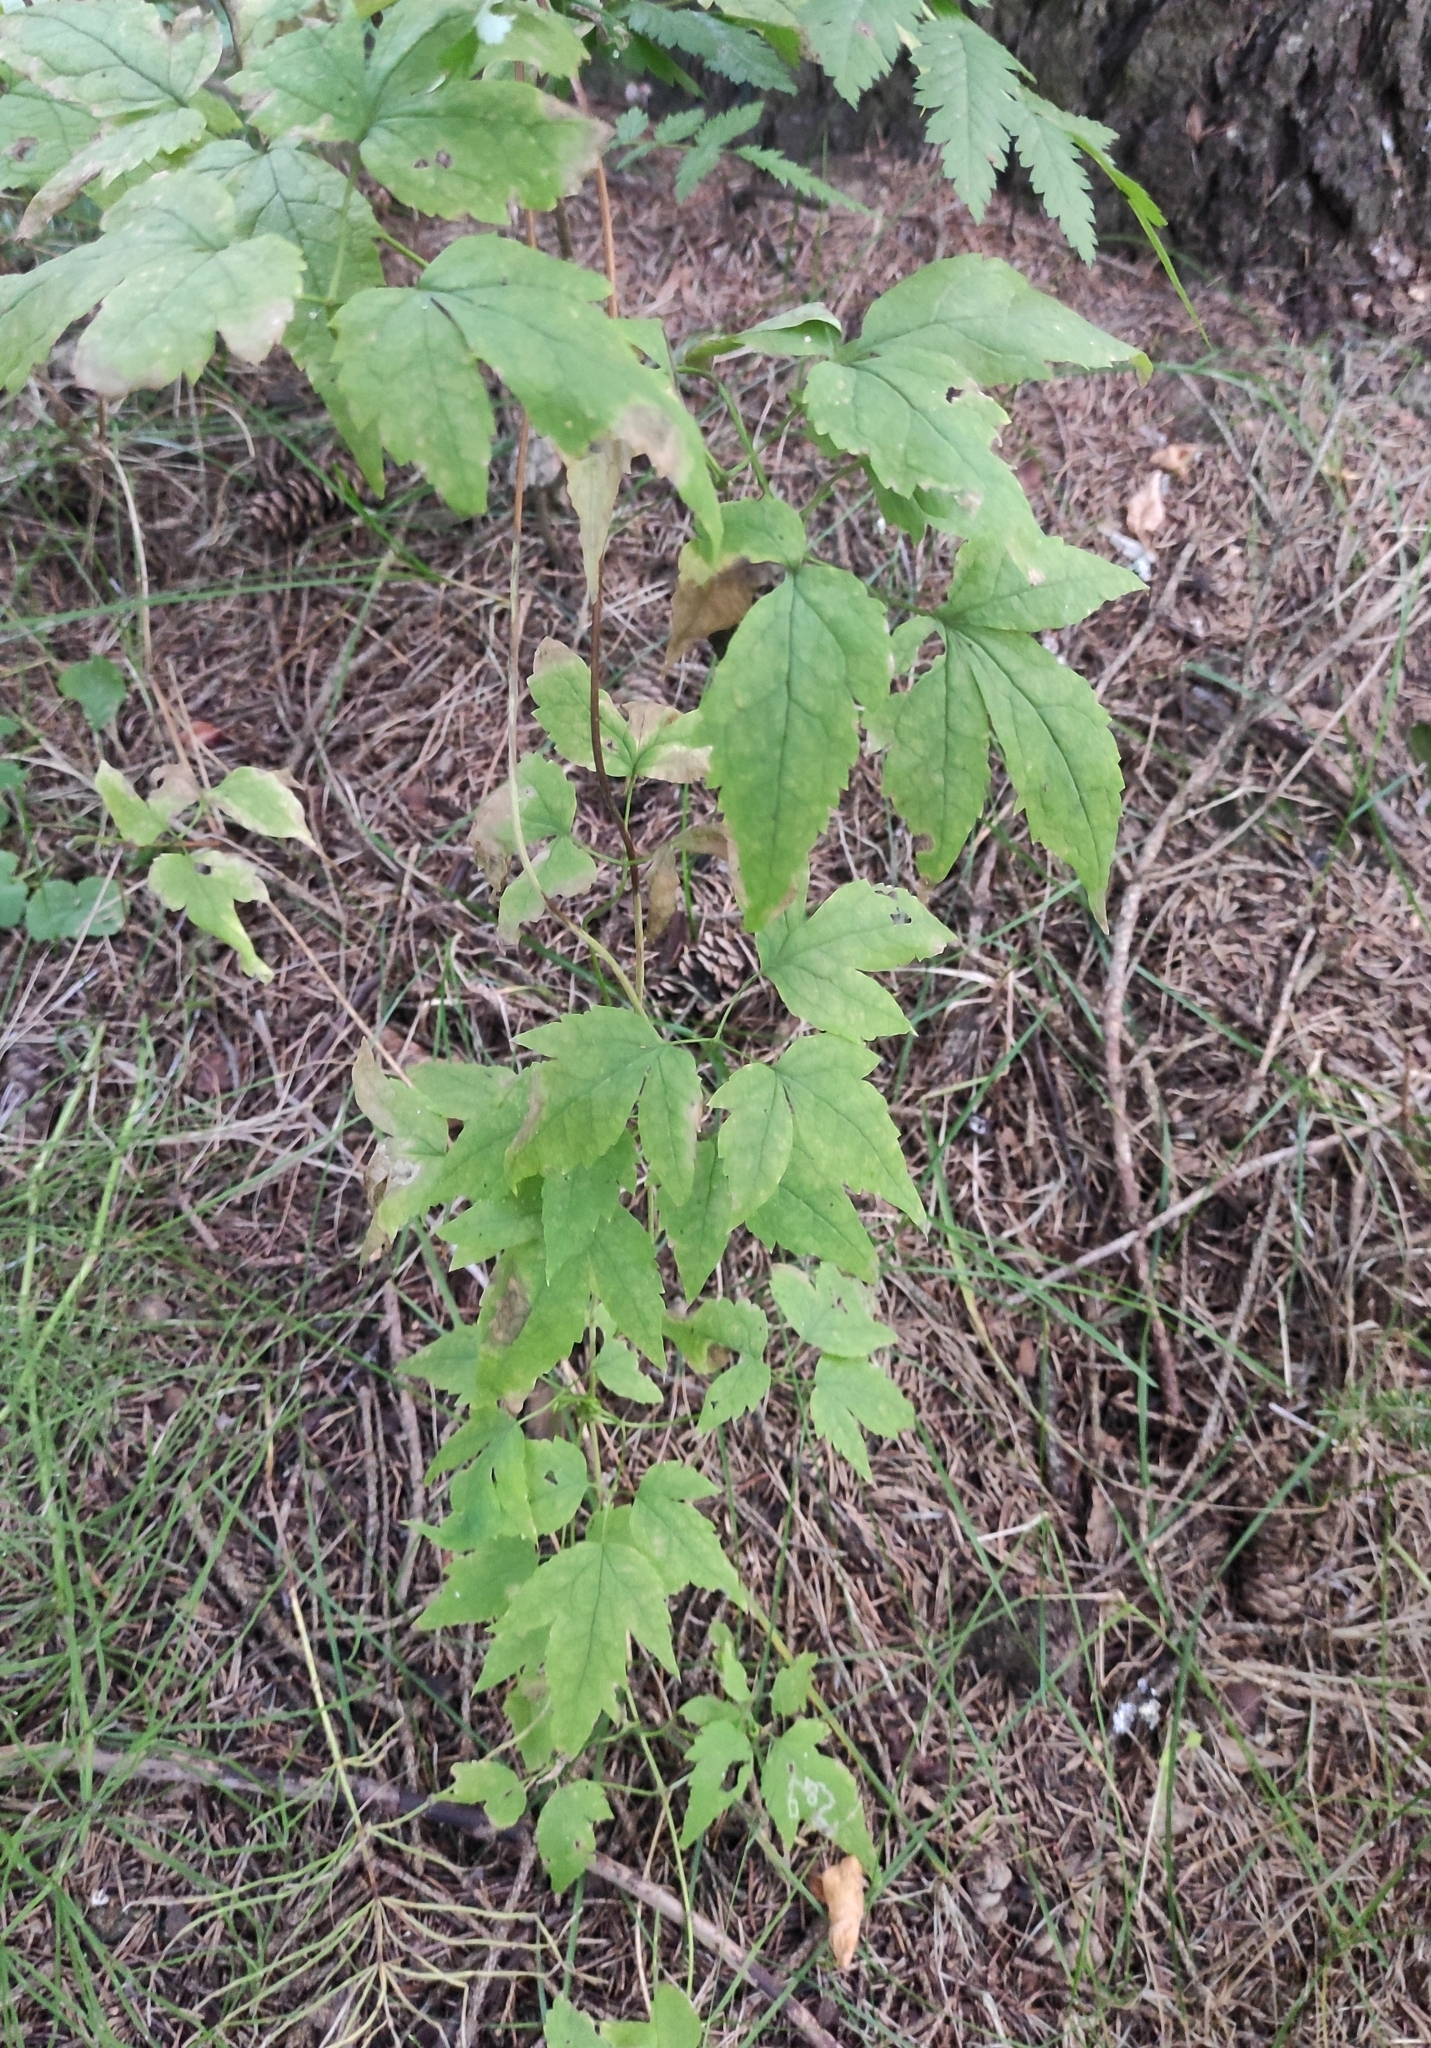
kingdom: Plantae
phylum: Tracheophyta
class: Magnoliopsida
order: Ranunculales
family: Ranunculaceae
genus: Clematis
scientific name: Clematis sibirica
